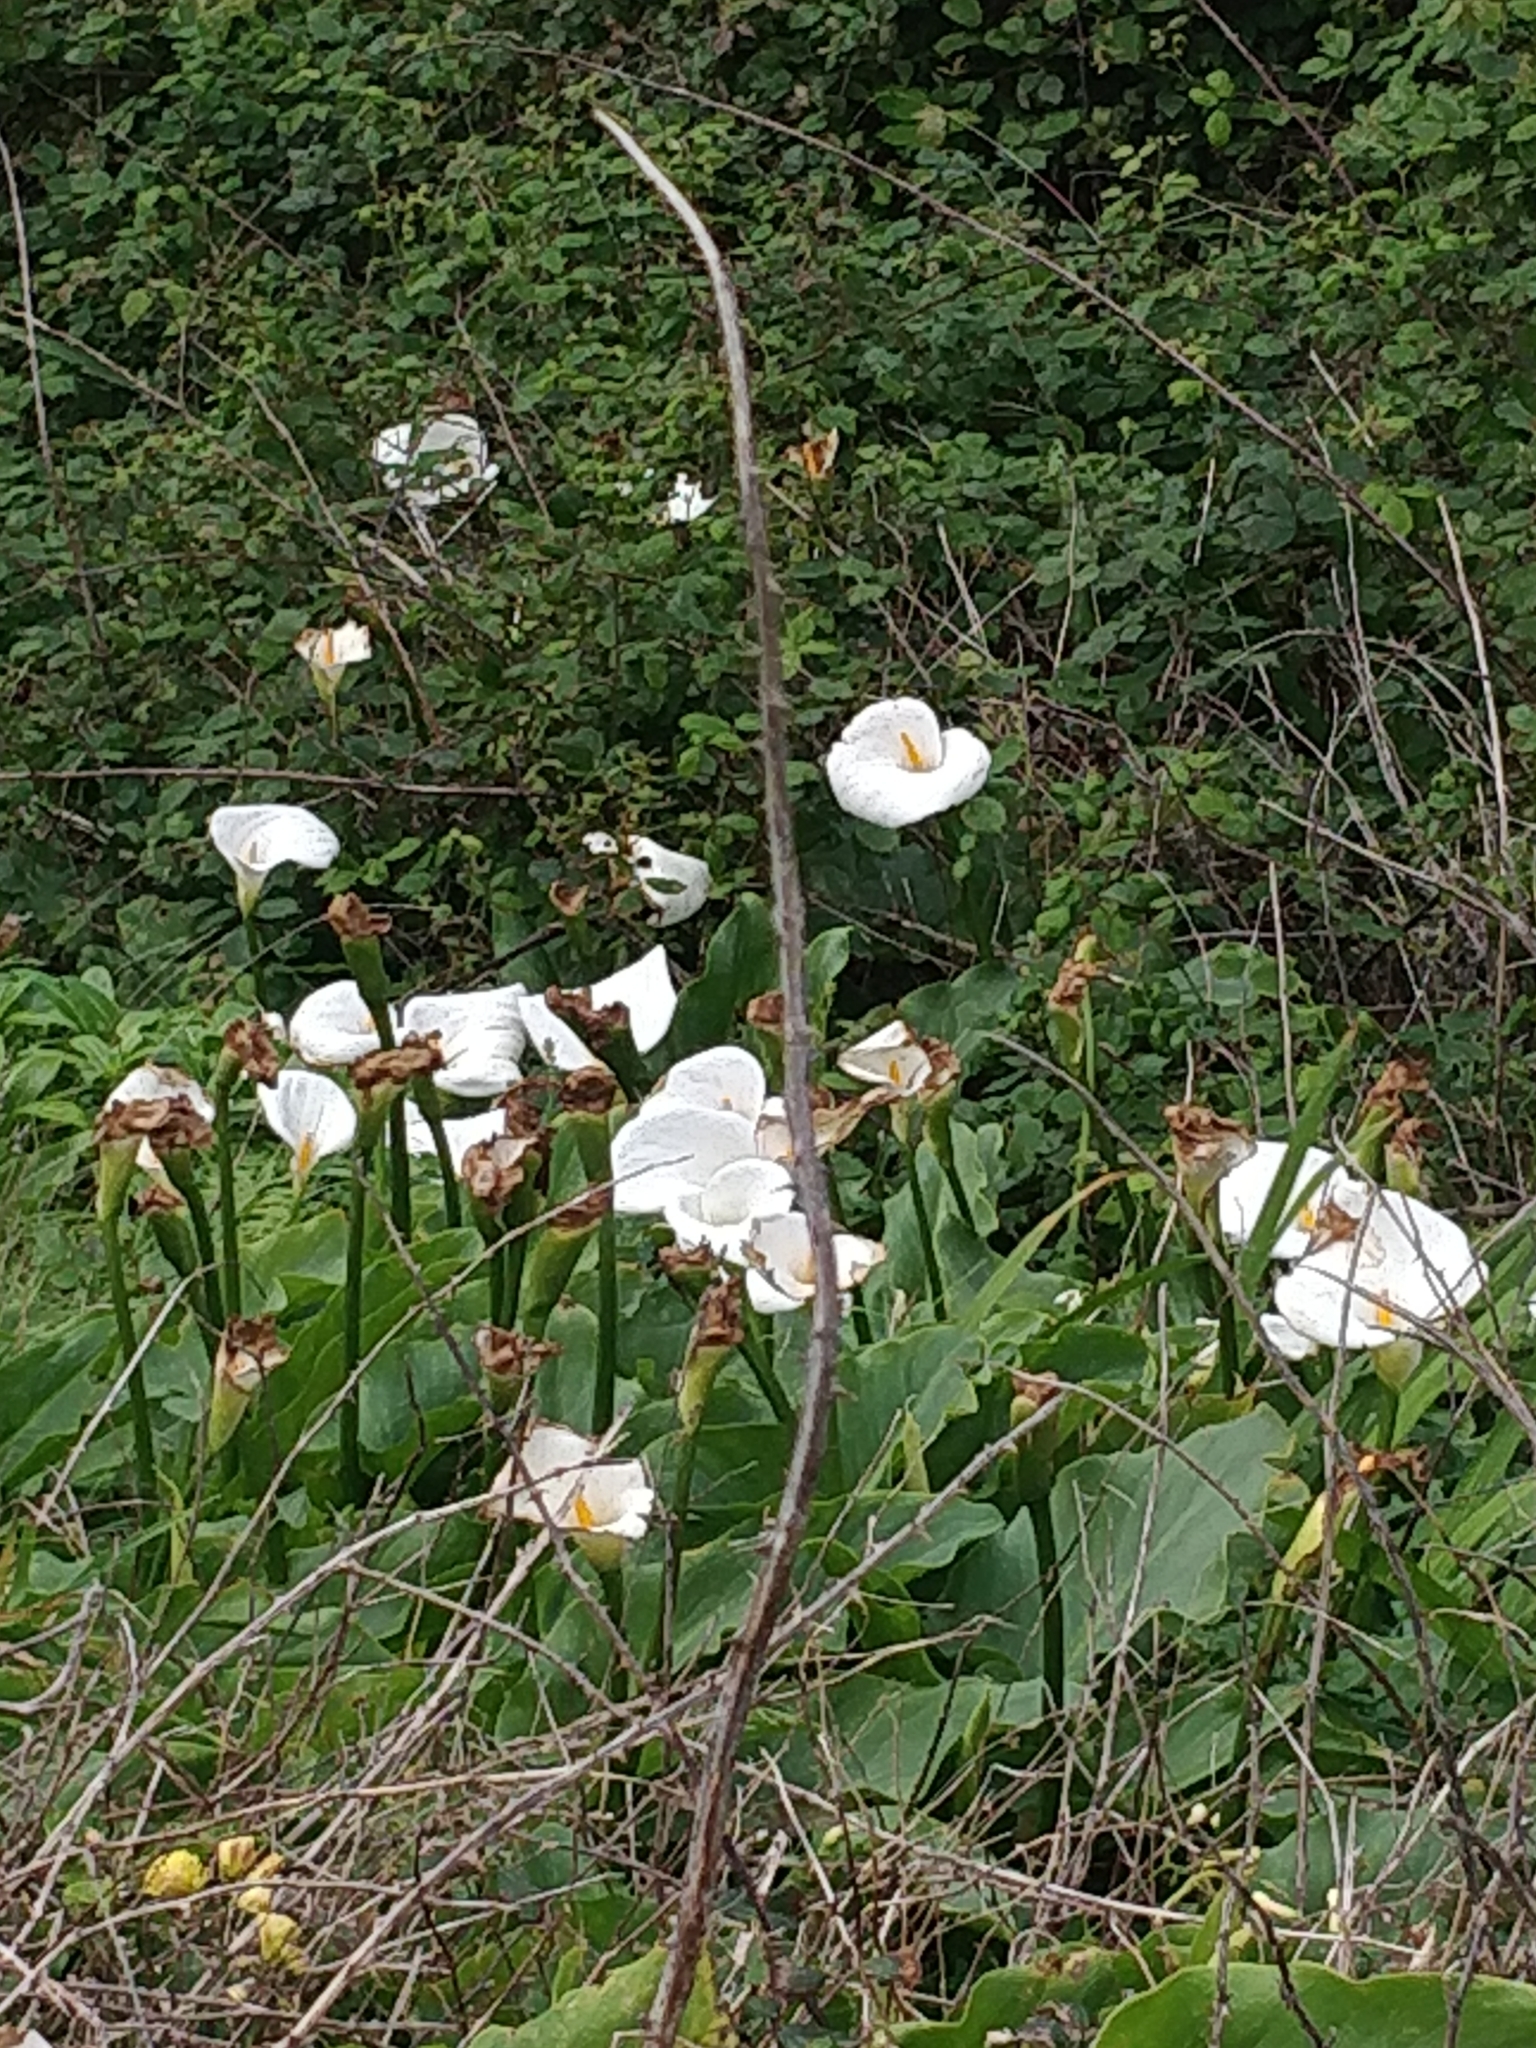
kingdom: Plantae
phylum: Tracheophyta
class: Liliopsida
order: Alismatales
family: Araceae
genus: Zantedeschia
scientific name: Zantedeschia aethiopica
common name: Altar-lily
